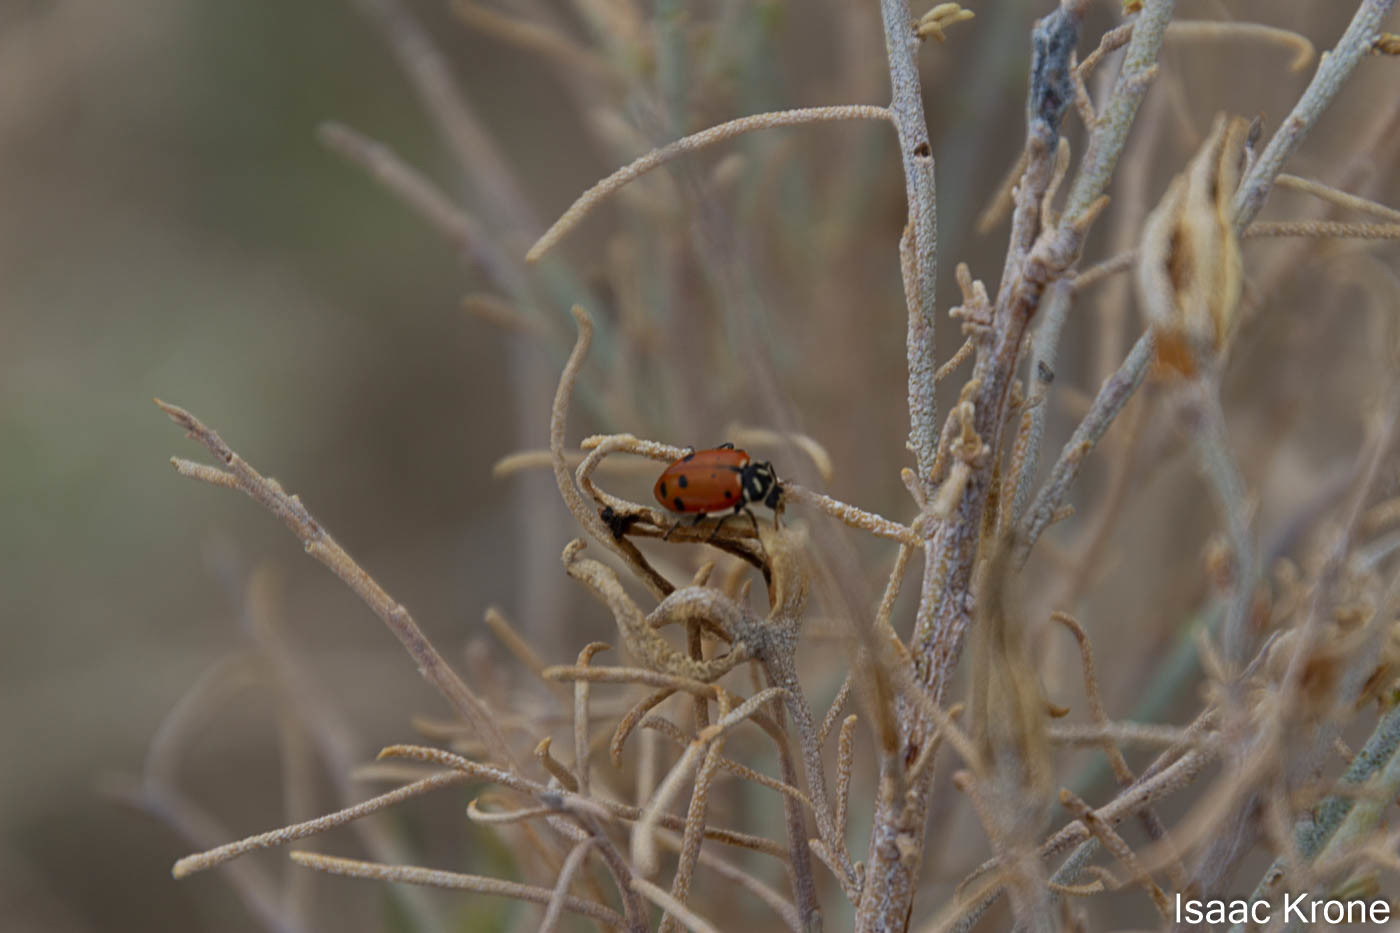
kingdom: Animalia
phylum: Arthropoda
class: Insecta
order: Coleoptera
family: Coccinellidae
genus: Hippodamia
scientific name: Hippodamia convergens
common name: Convergent lady beetle
